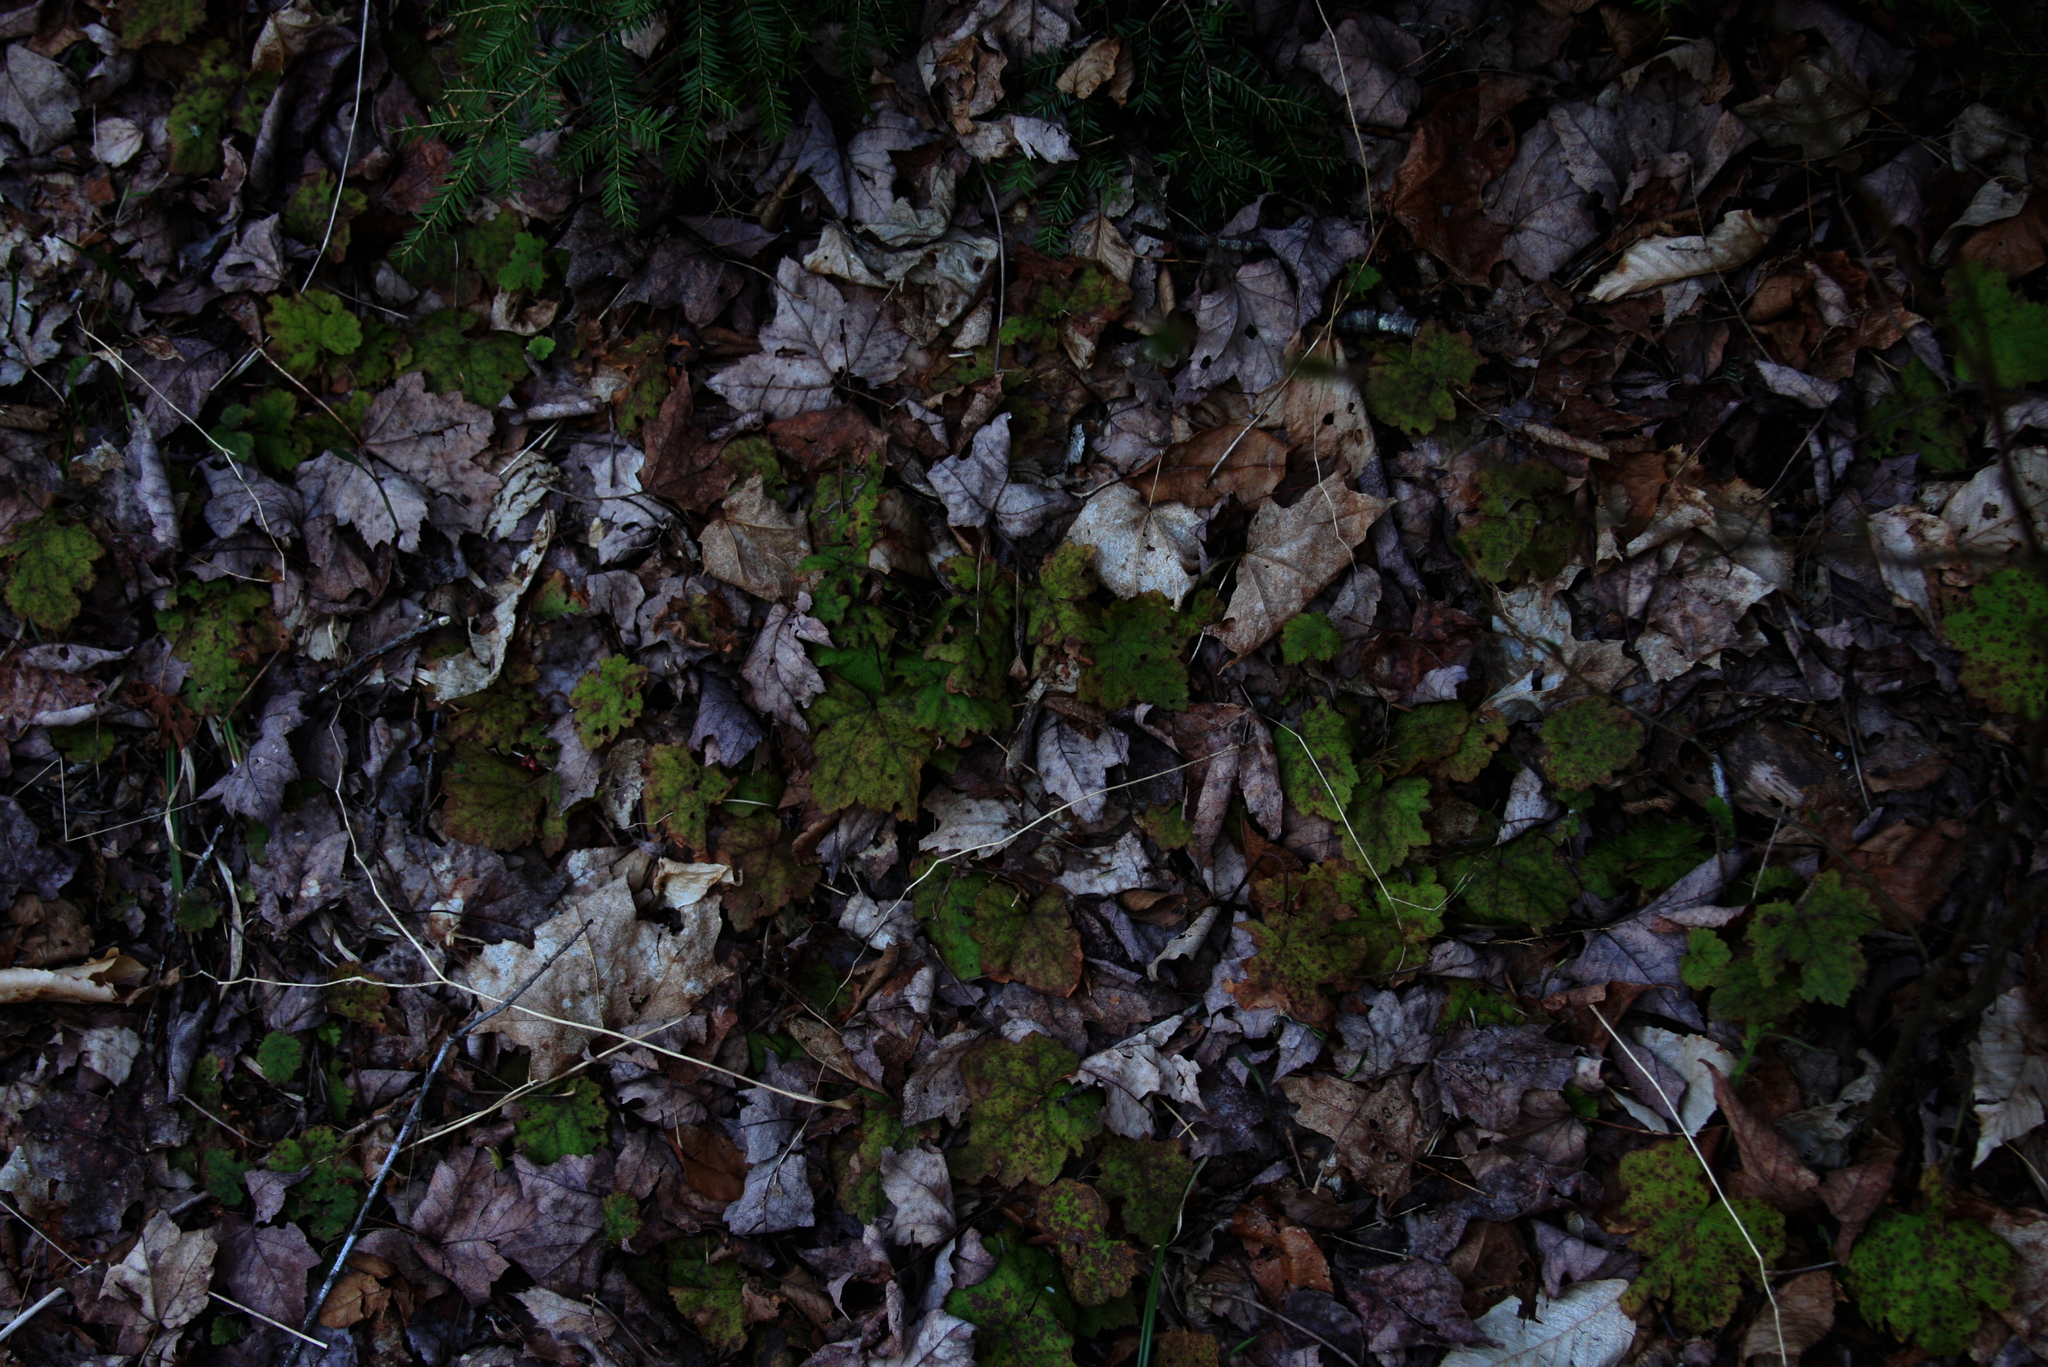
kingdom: Plantae
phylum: Tracheophyta
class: Pinopsida
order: Pinales
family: Pinaceae
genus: Tsuga
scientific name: Tsuga canadensis
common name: Eastern hemlock
